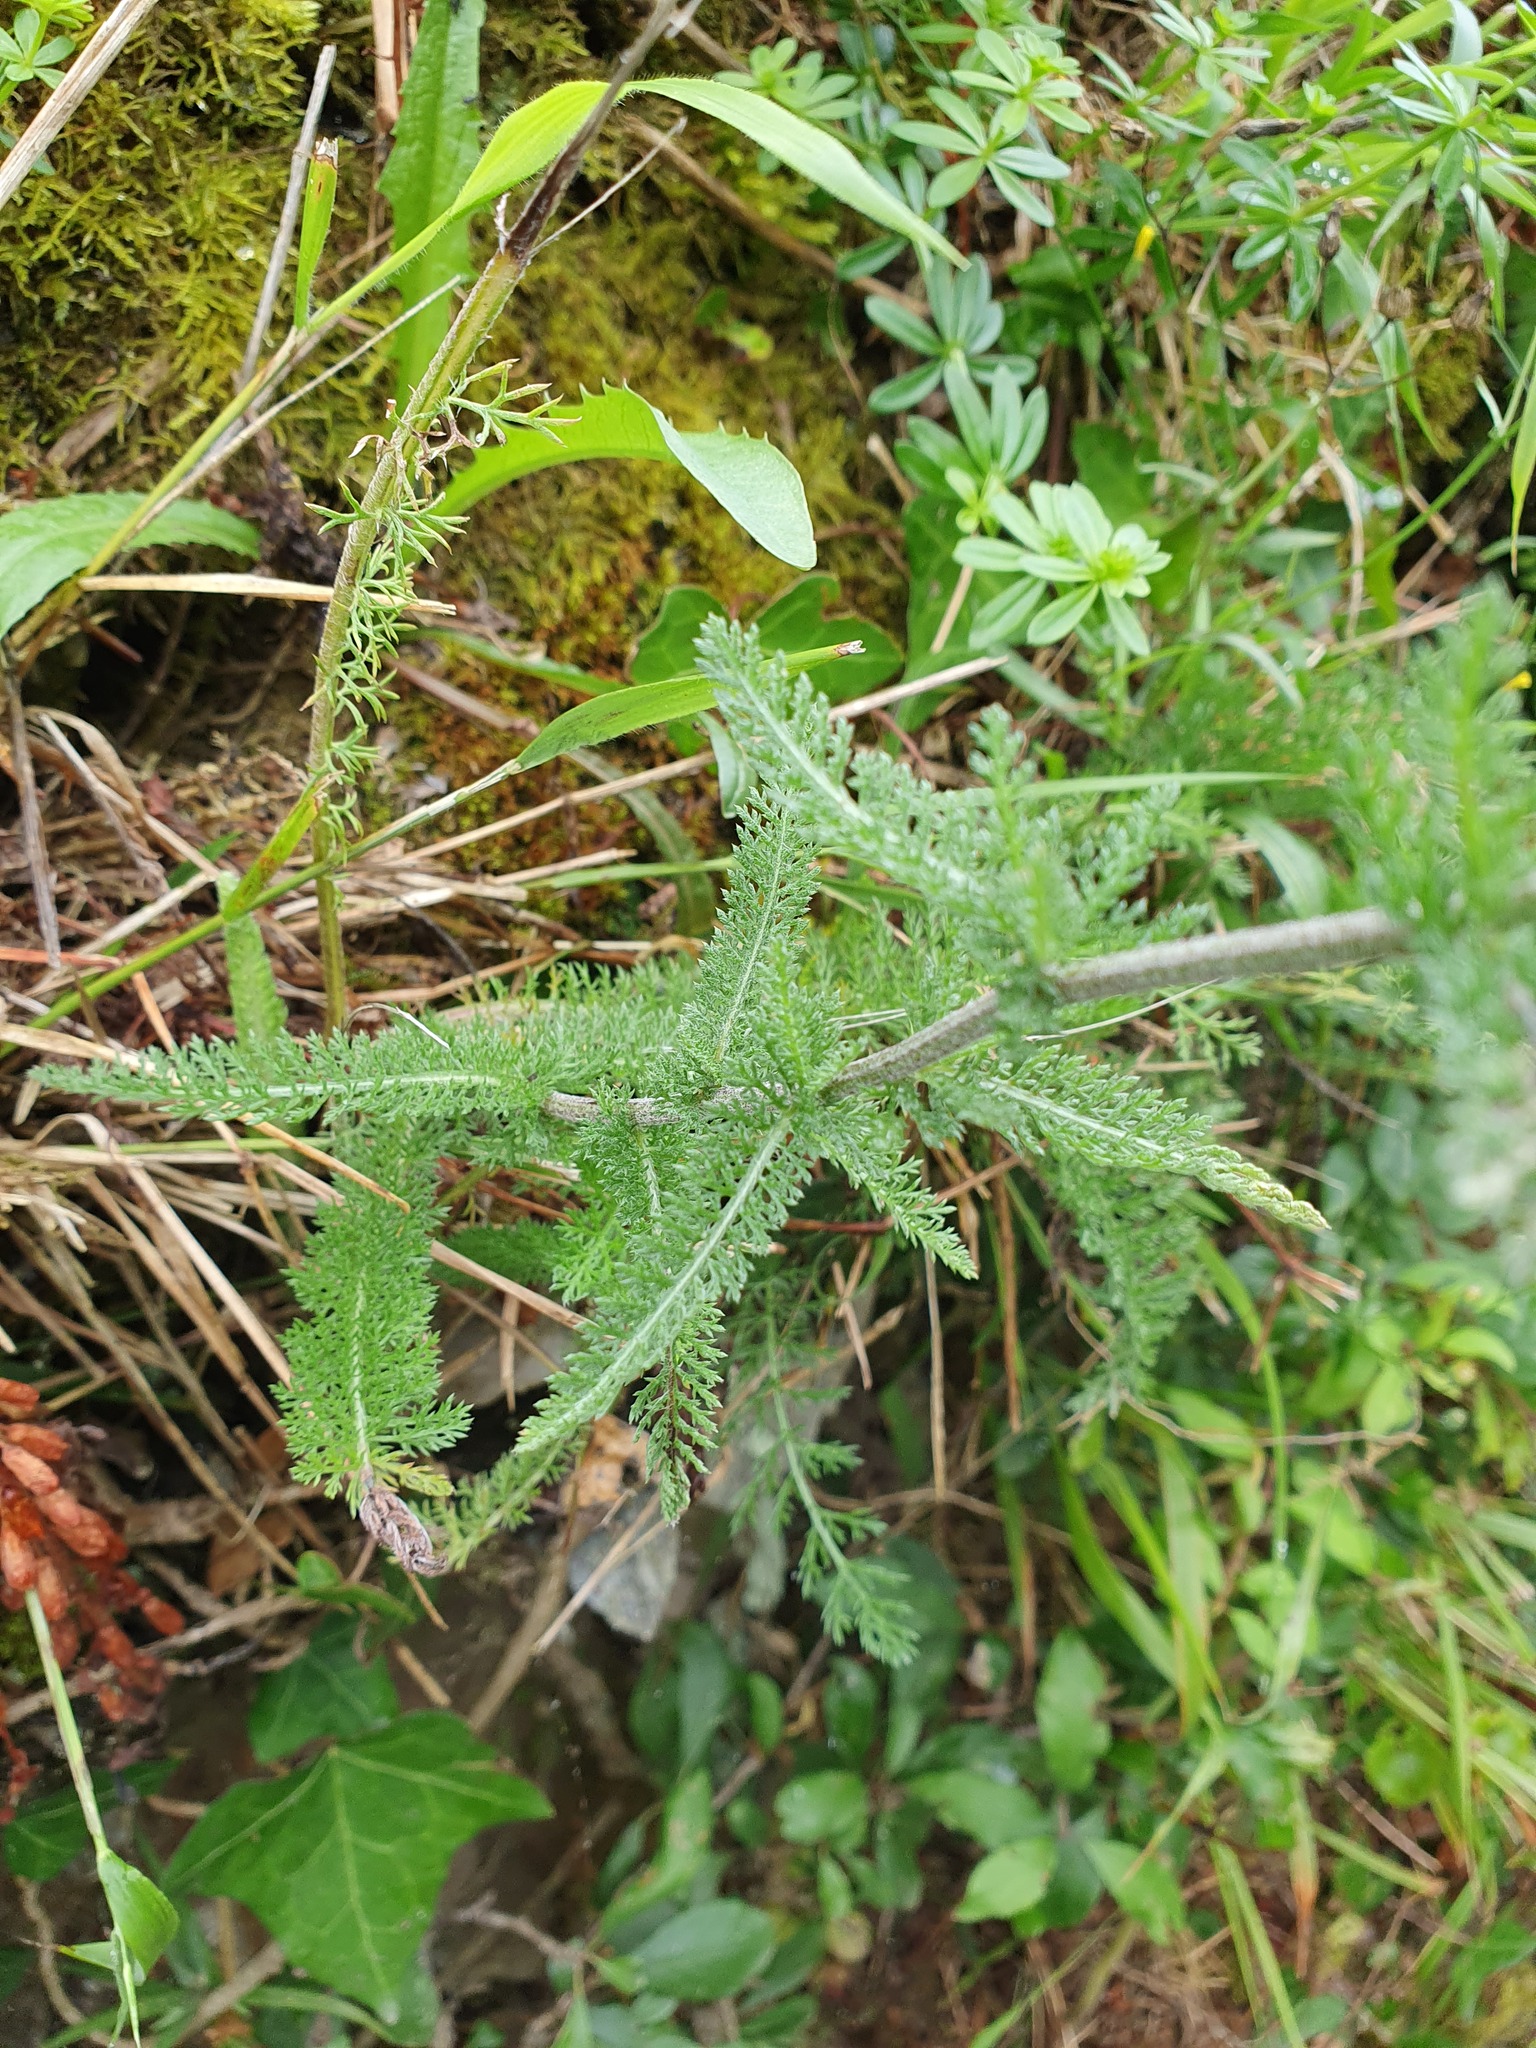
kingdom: Plantae
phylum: Tracheophyta
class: Magnoliopsida
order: Asterales
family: Asteraceae
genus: Achillea
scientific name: Achillea millefolium
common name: Yarrow
